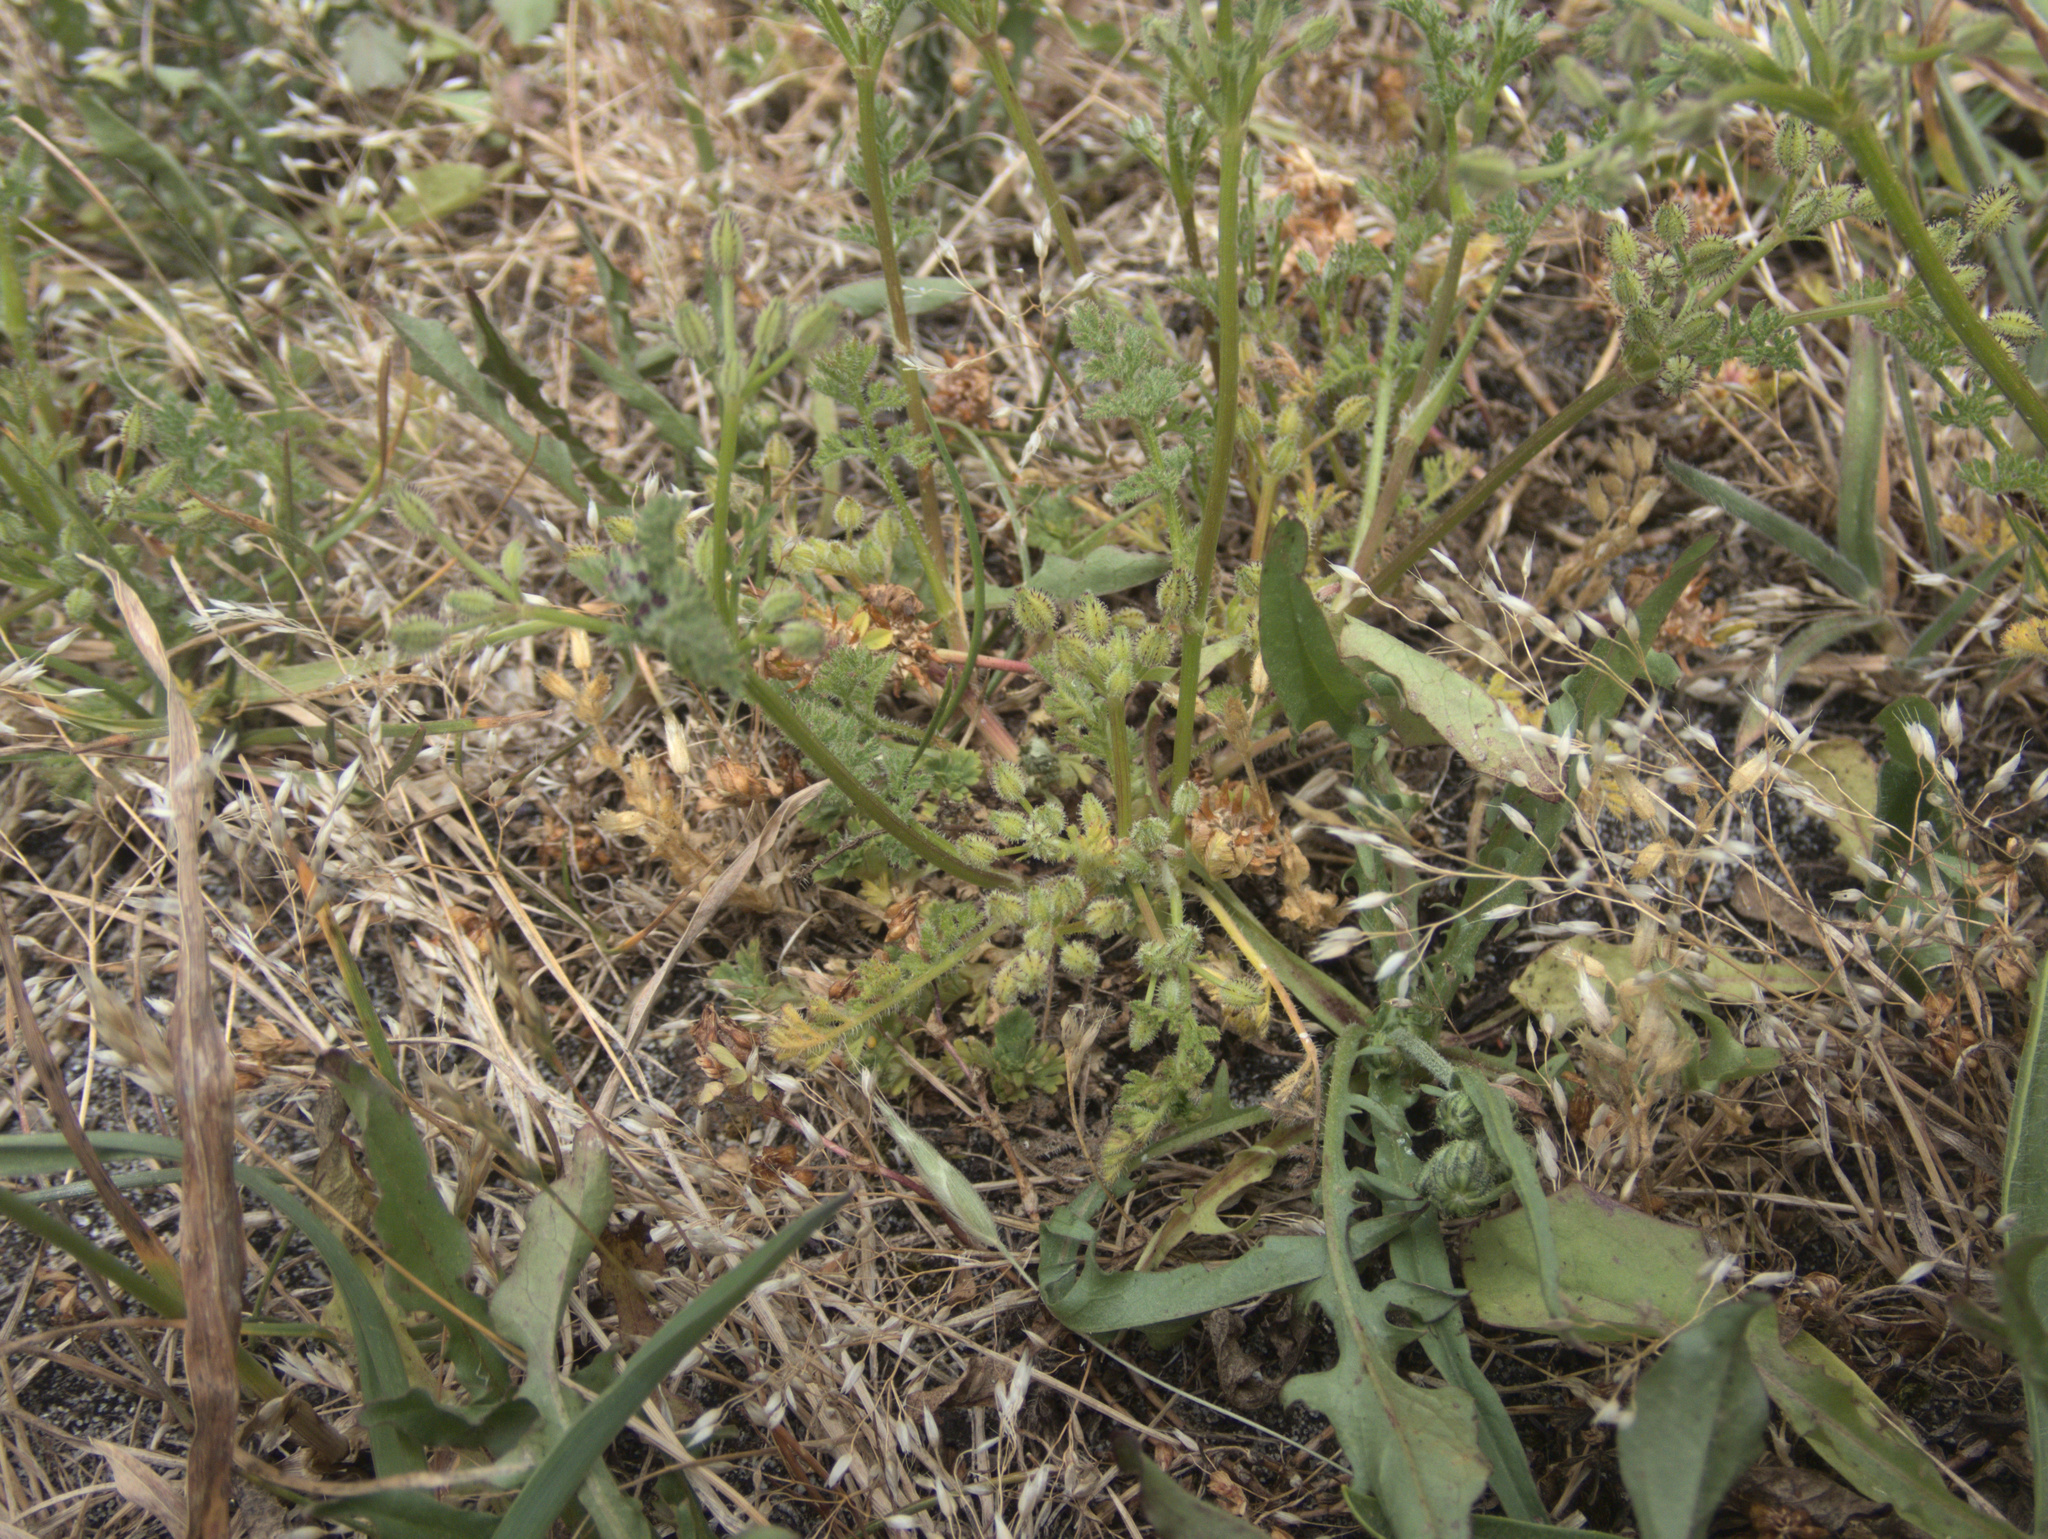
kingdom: Plantae
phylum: Tracheophyta
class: Magnoliopsida
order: Apiales
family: Apiaceae
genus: Daucus
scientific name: Daucus glochidiatus
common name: Australian carrot
